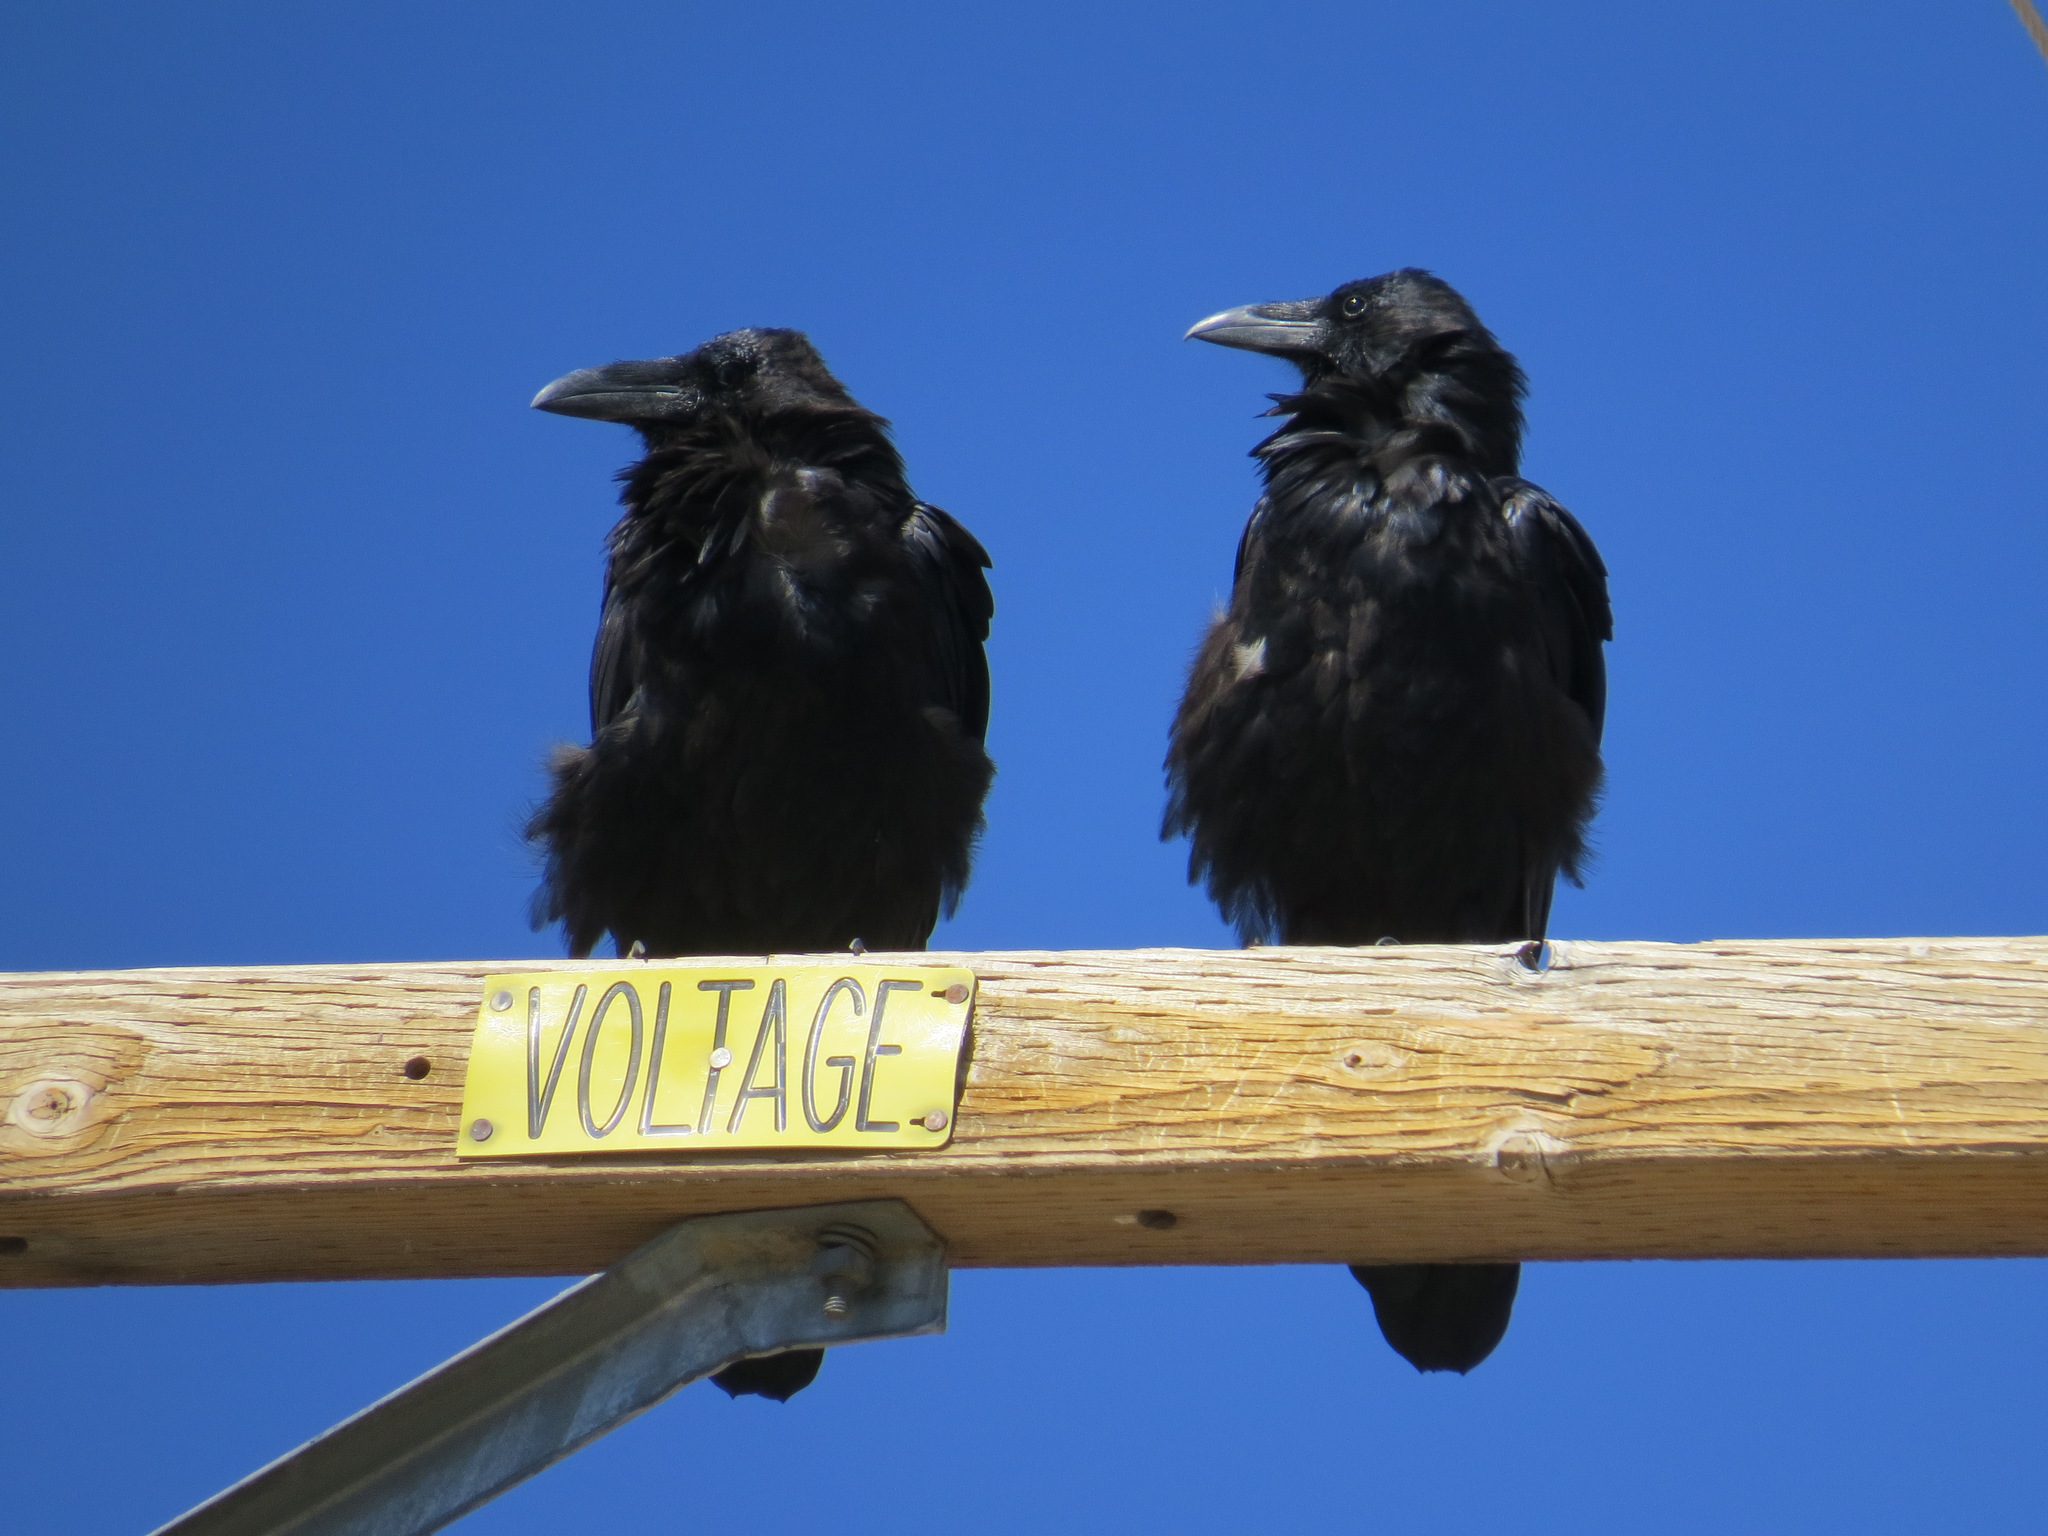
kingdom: Animalia
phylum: Chordata
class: Aves
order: Passeriformes
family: Corvidae
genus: Corvus
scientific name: Corvus corax
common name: Common raven
